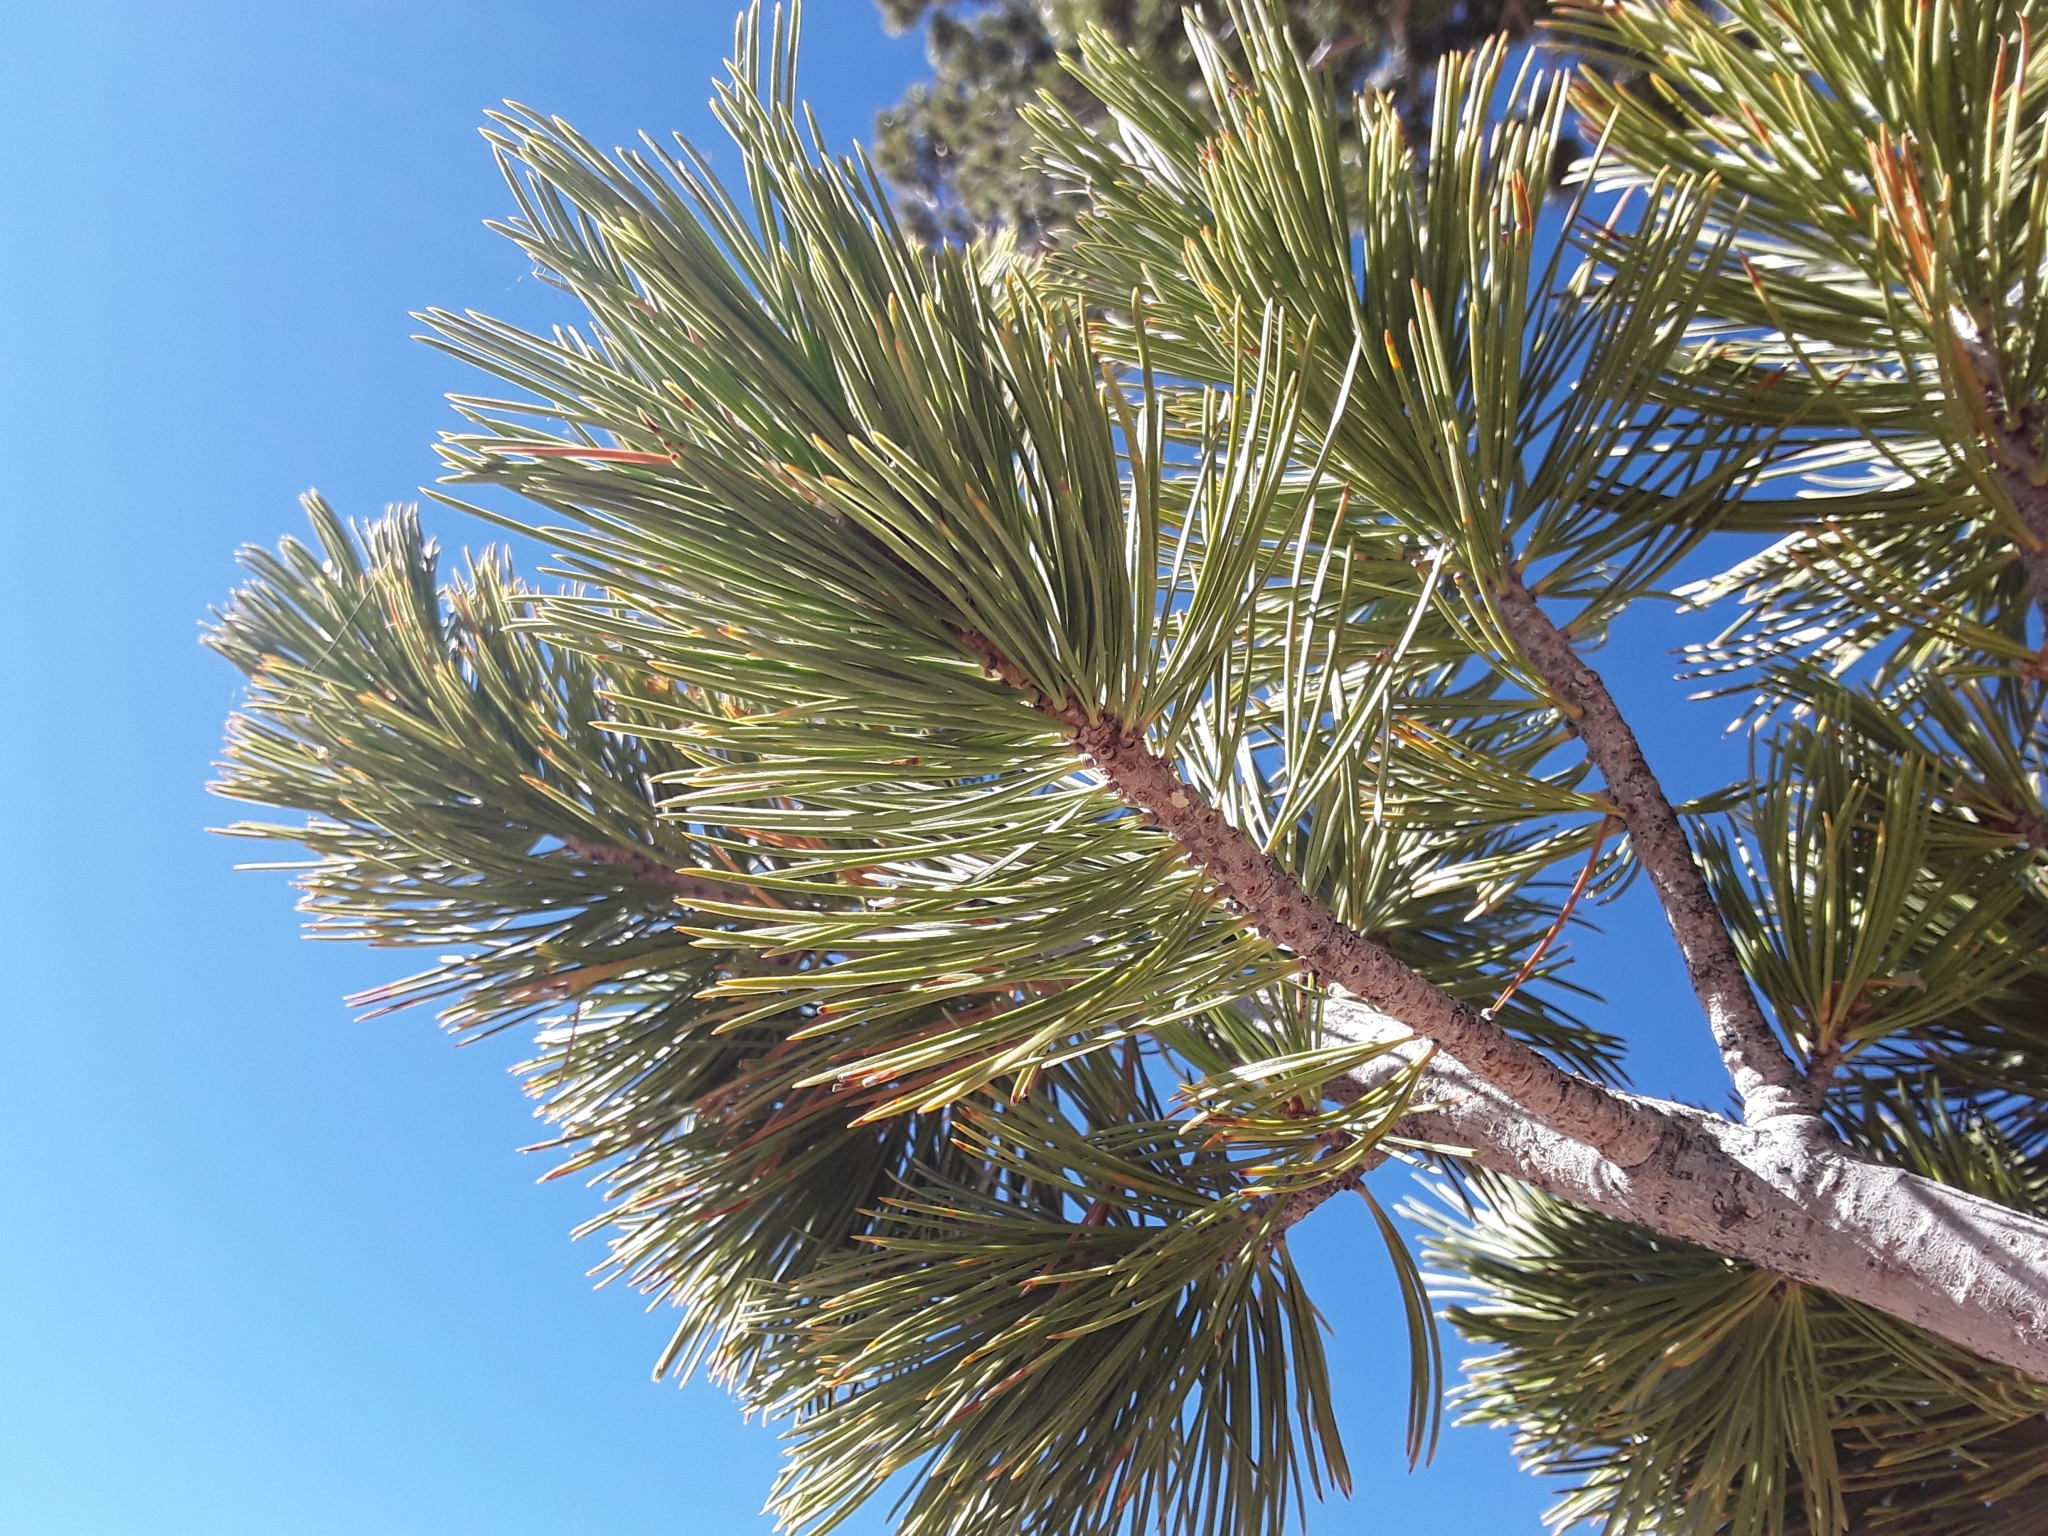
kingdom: Plantae
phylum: Tracheophyta
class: Pinopsida
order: Pinales
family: Pinaceae
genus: Pinus
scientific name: Pinus flexilis
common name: Limber pine
